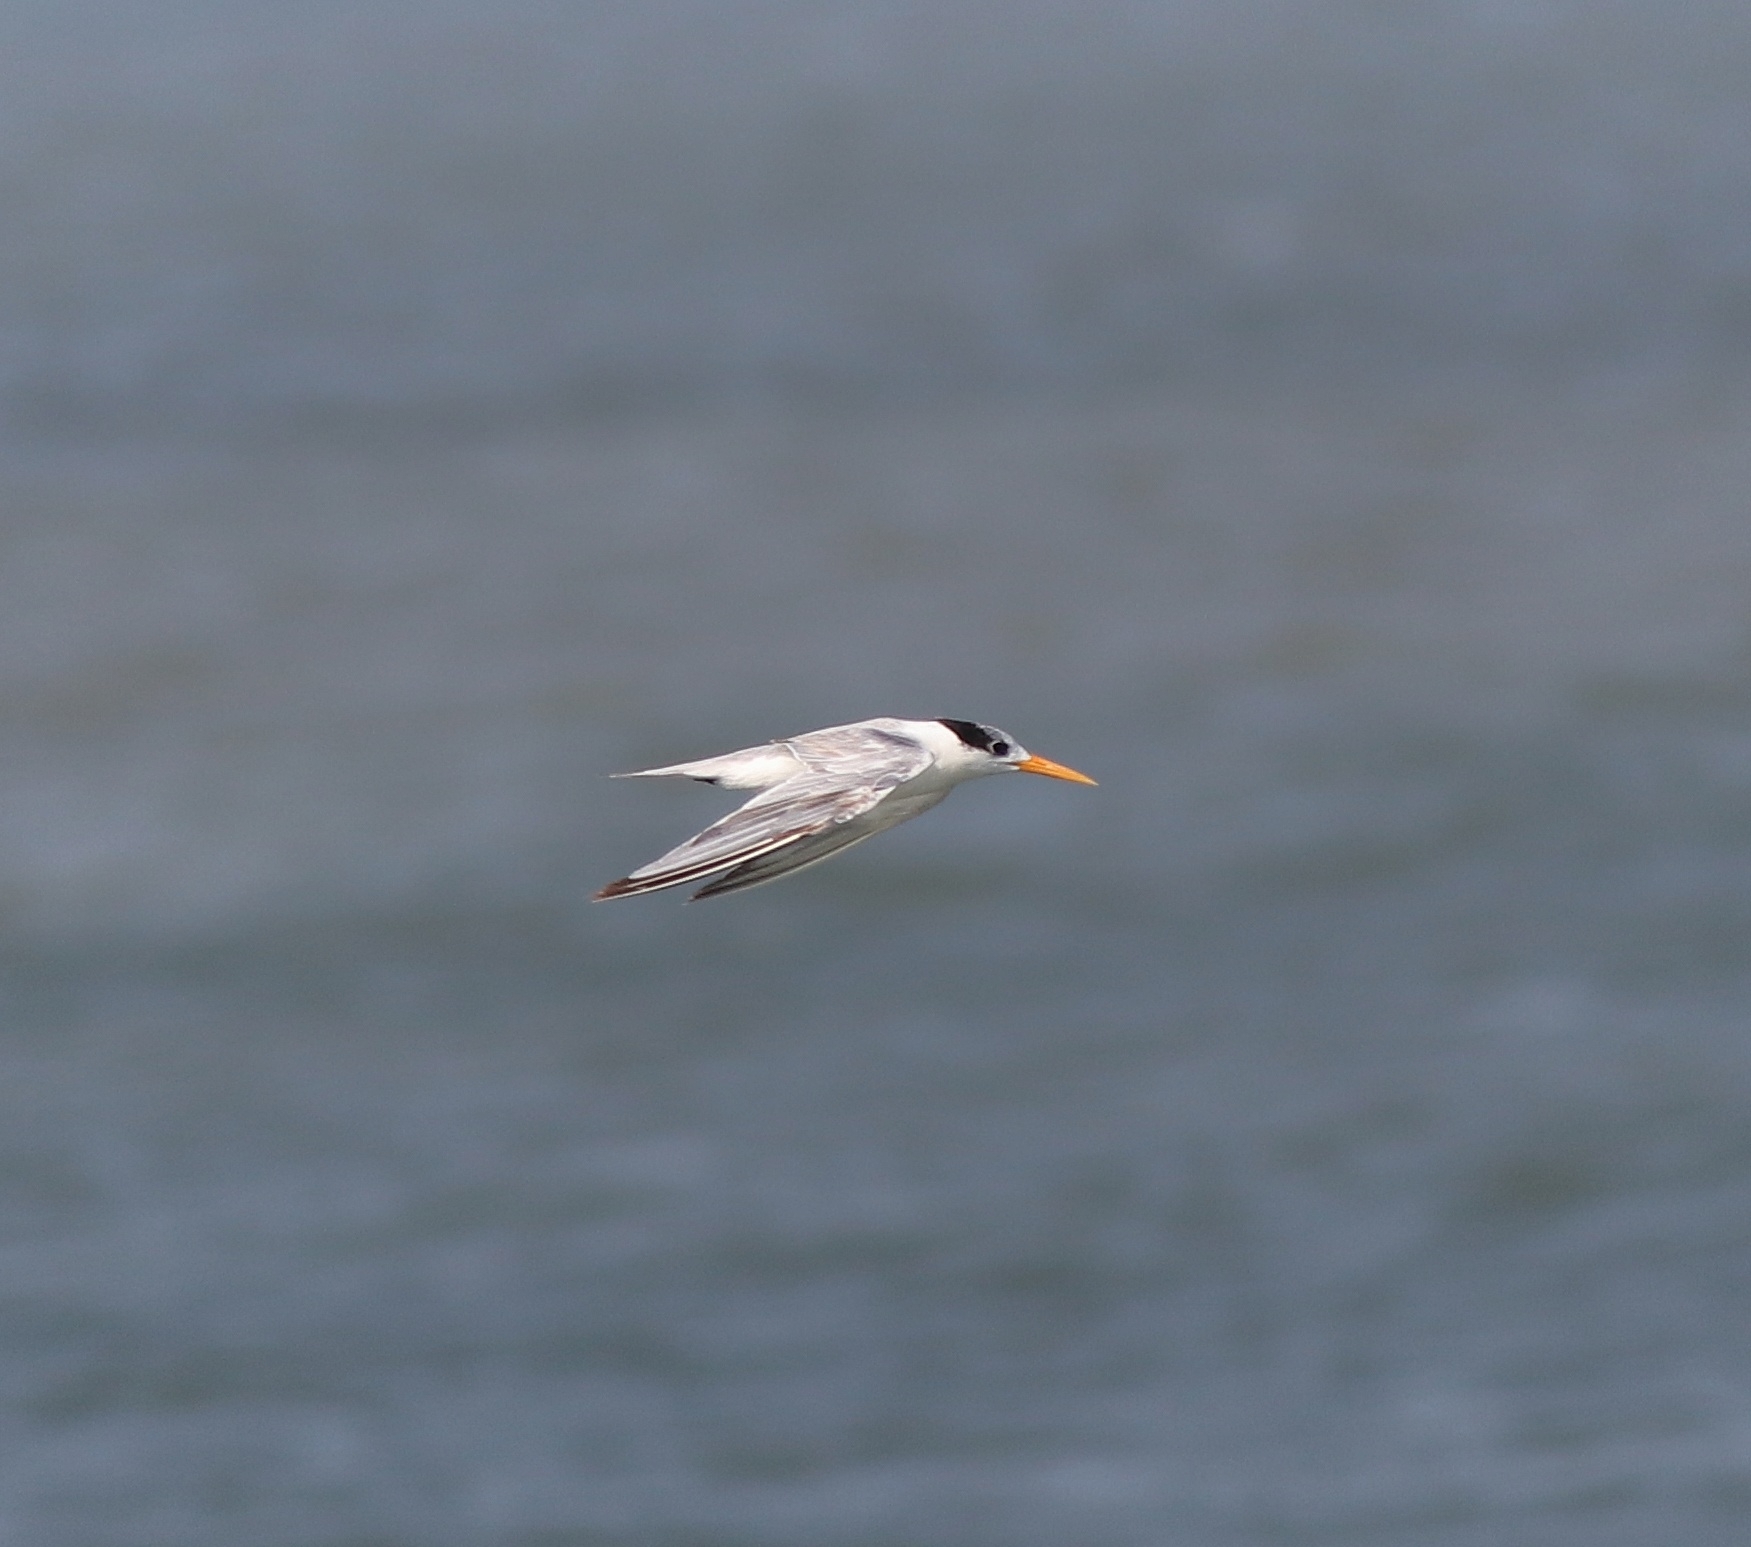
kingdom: Animalia
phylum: Chordata
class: Aves
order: Charadriiformes
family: Laridae
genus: Thalasseus
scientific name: Thalasseus bengalensis
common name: Lesser crested tern
